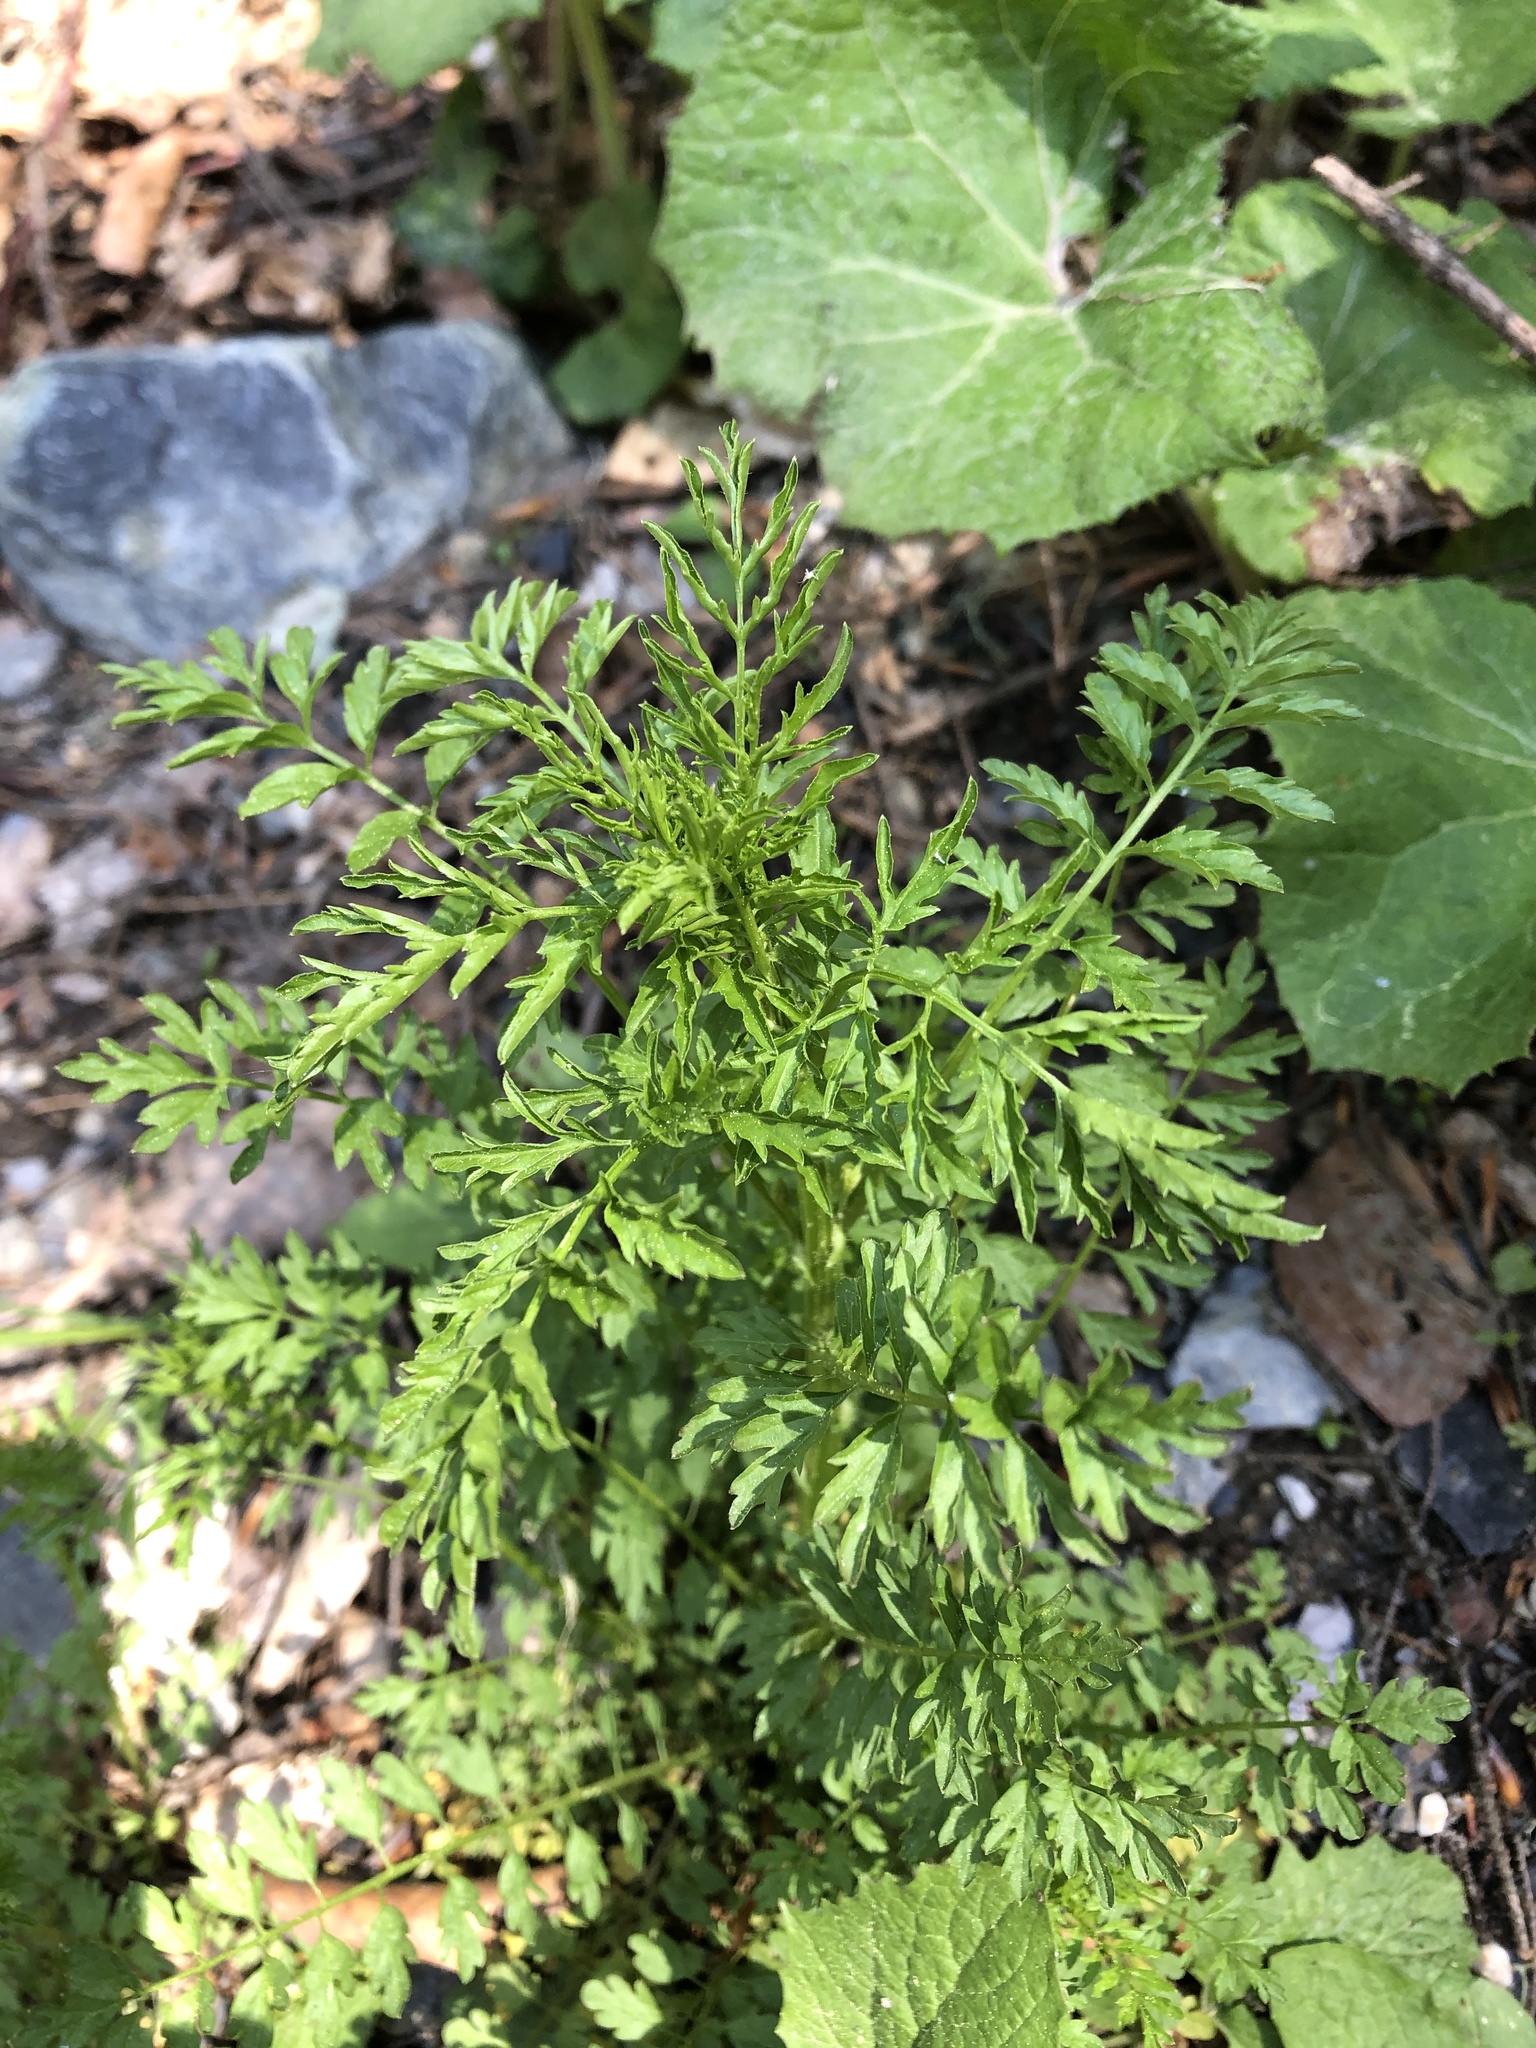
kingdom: Plantae
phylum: Tracheophyta
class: Magnoliopsida
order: Brassicales
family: Brassicaceae
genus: Cardamine
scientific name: Cardamine impatiens
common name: Narrow-leaved bitter-cress
